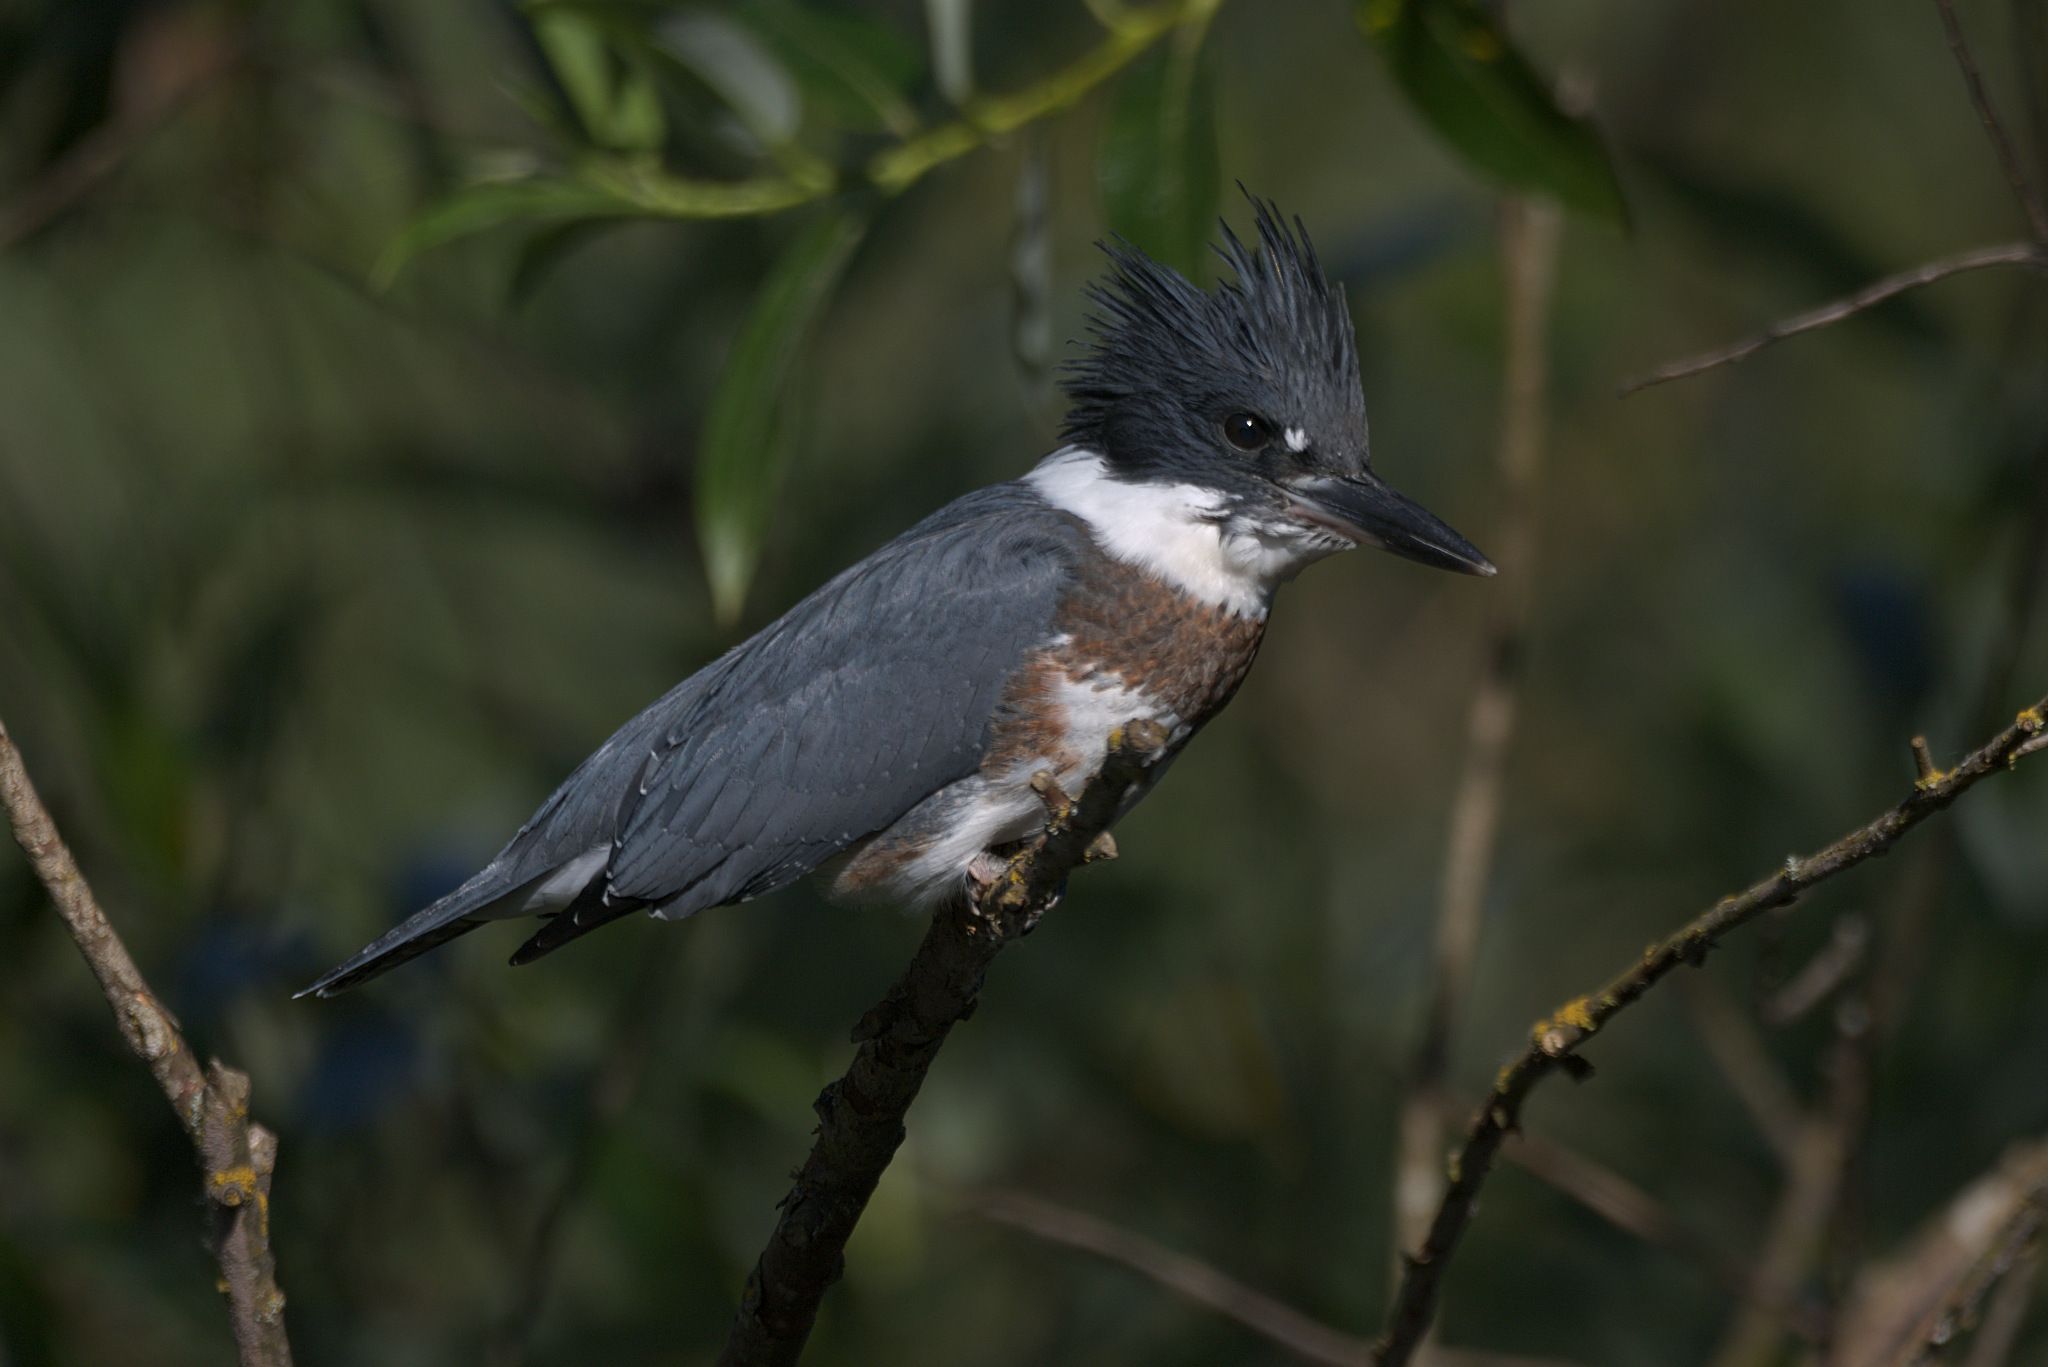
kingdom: Animalia
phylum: Chordata
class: Aves
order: Coraciiformes
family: Alcedinidae
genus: Megaceryle
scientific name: Megaceryle alcyon
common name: Belted kingfisher
